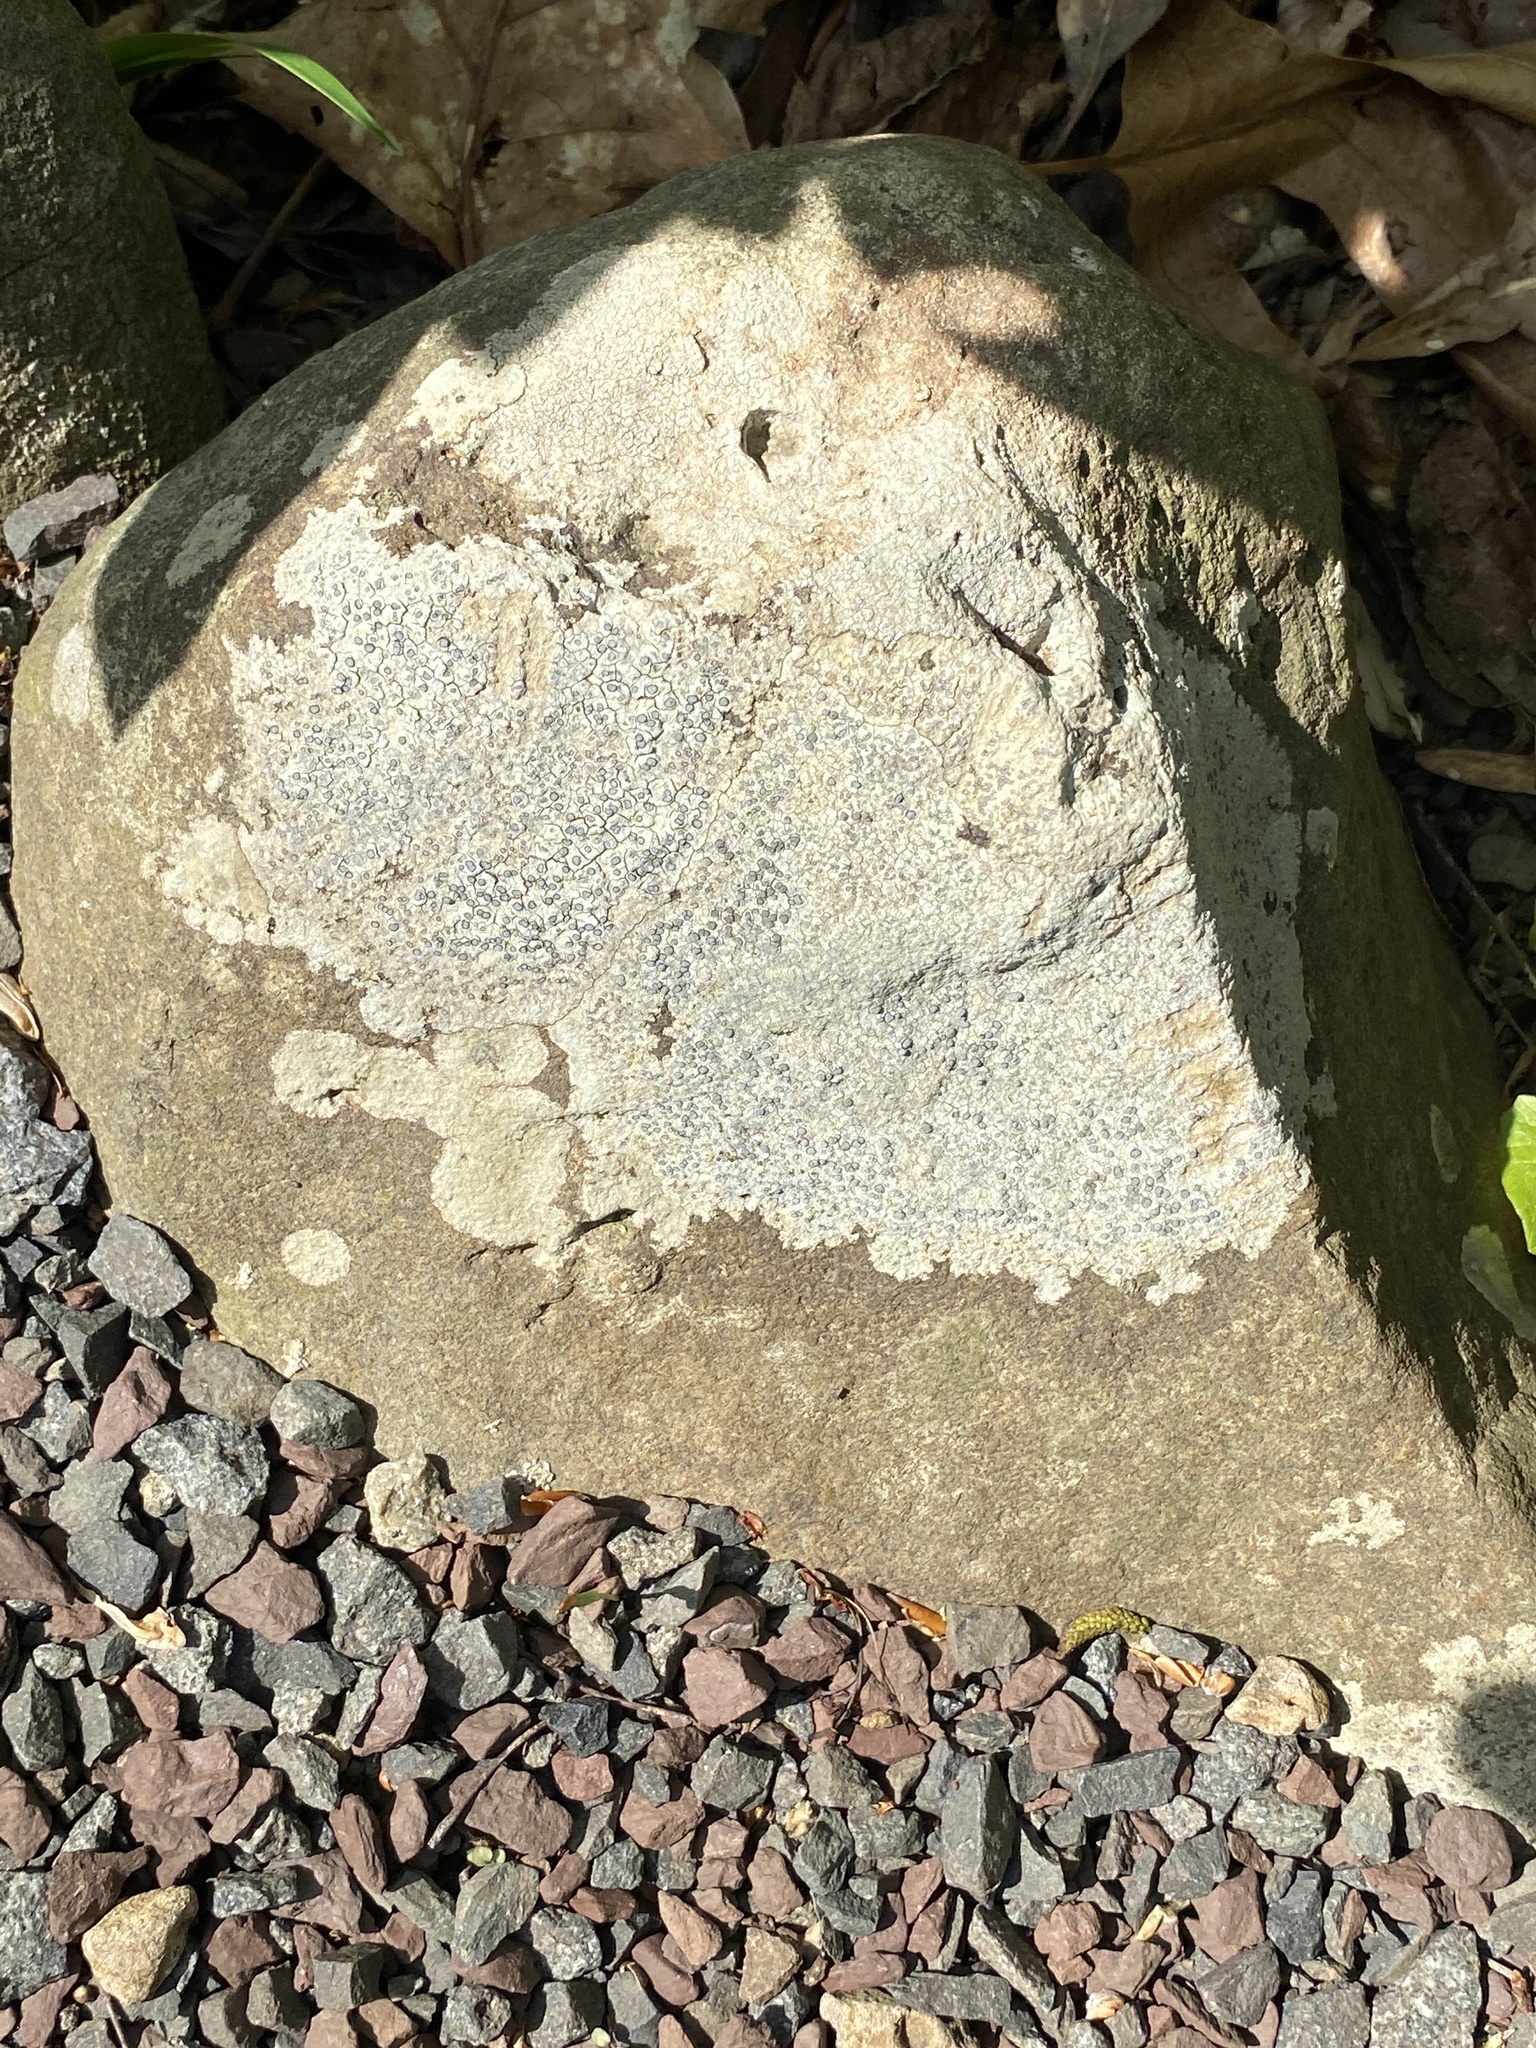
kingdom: Fungi
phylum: Ascomycota
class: Lecanoromycetes
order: Lecideales
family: Lecideaceae
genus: Porpidia
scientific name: Porpidia albocaerulescens
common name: Smokey-eyed boulder lichen
